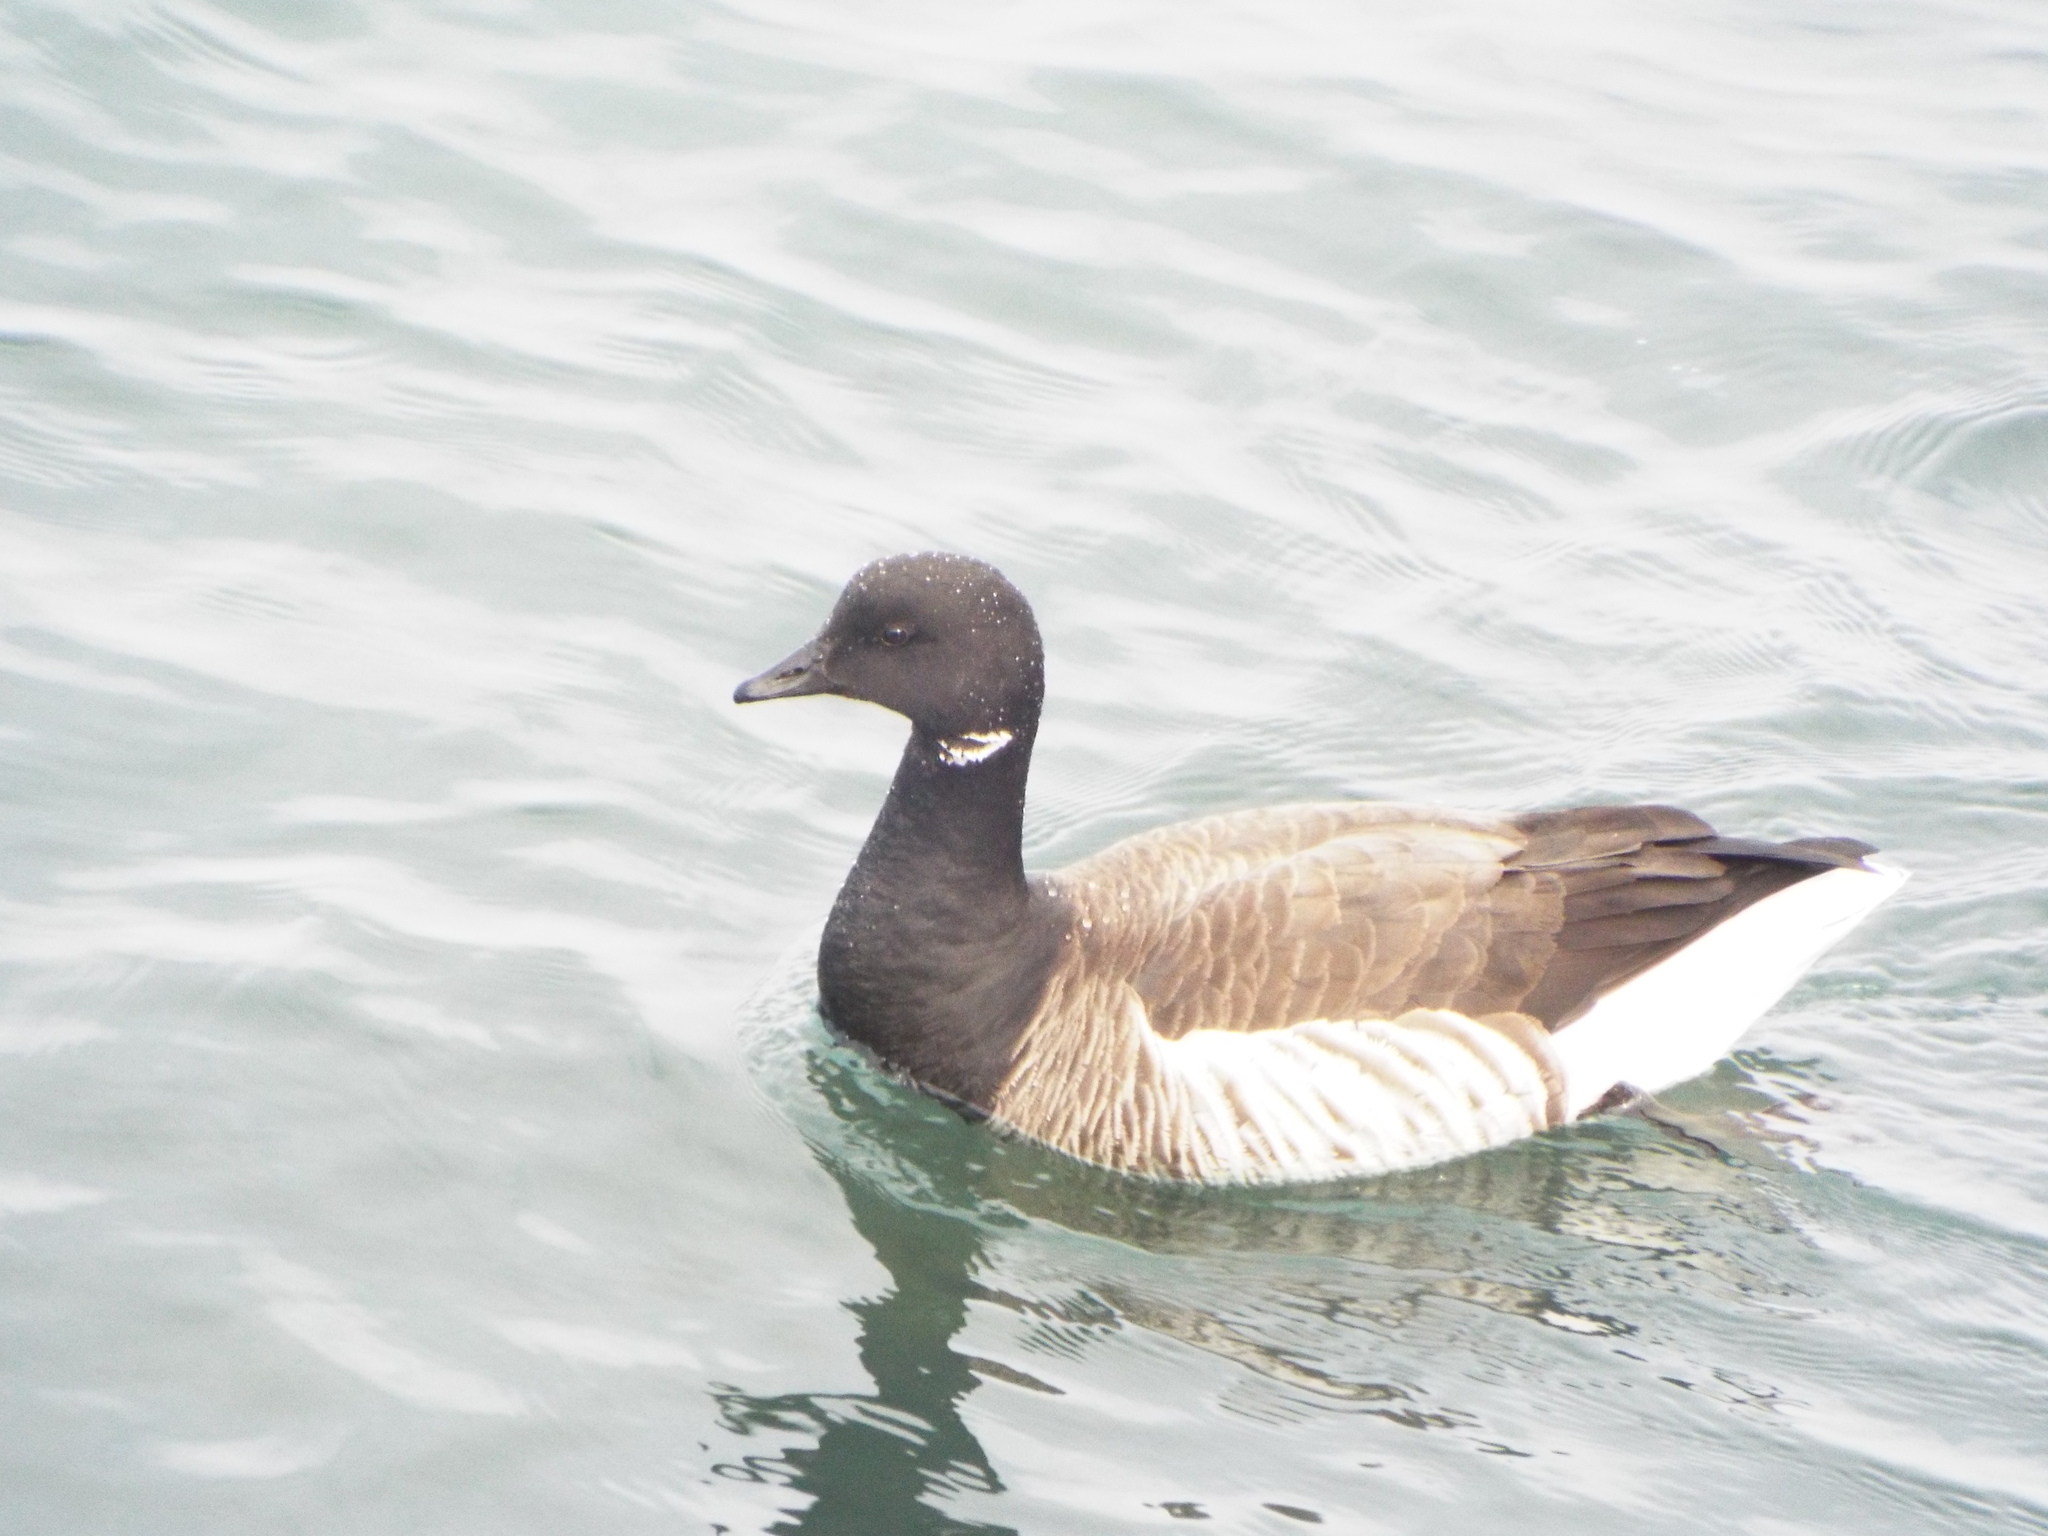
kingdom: Animalia
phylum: Chordata
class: Aves
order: Anseriformes
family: Anatidae
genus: Branta
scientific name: Branta bernicla
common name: Brant goose
